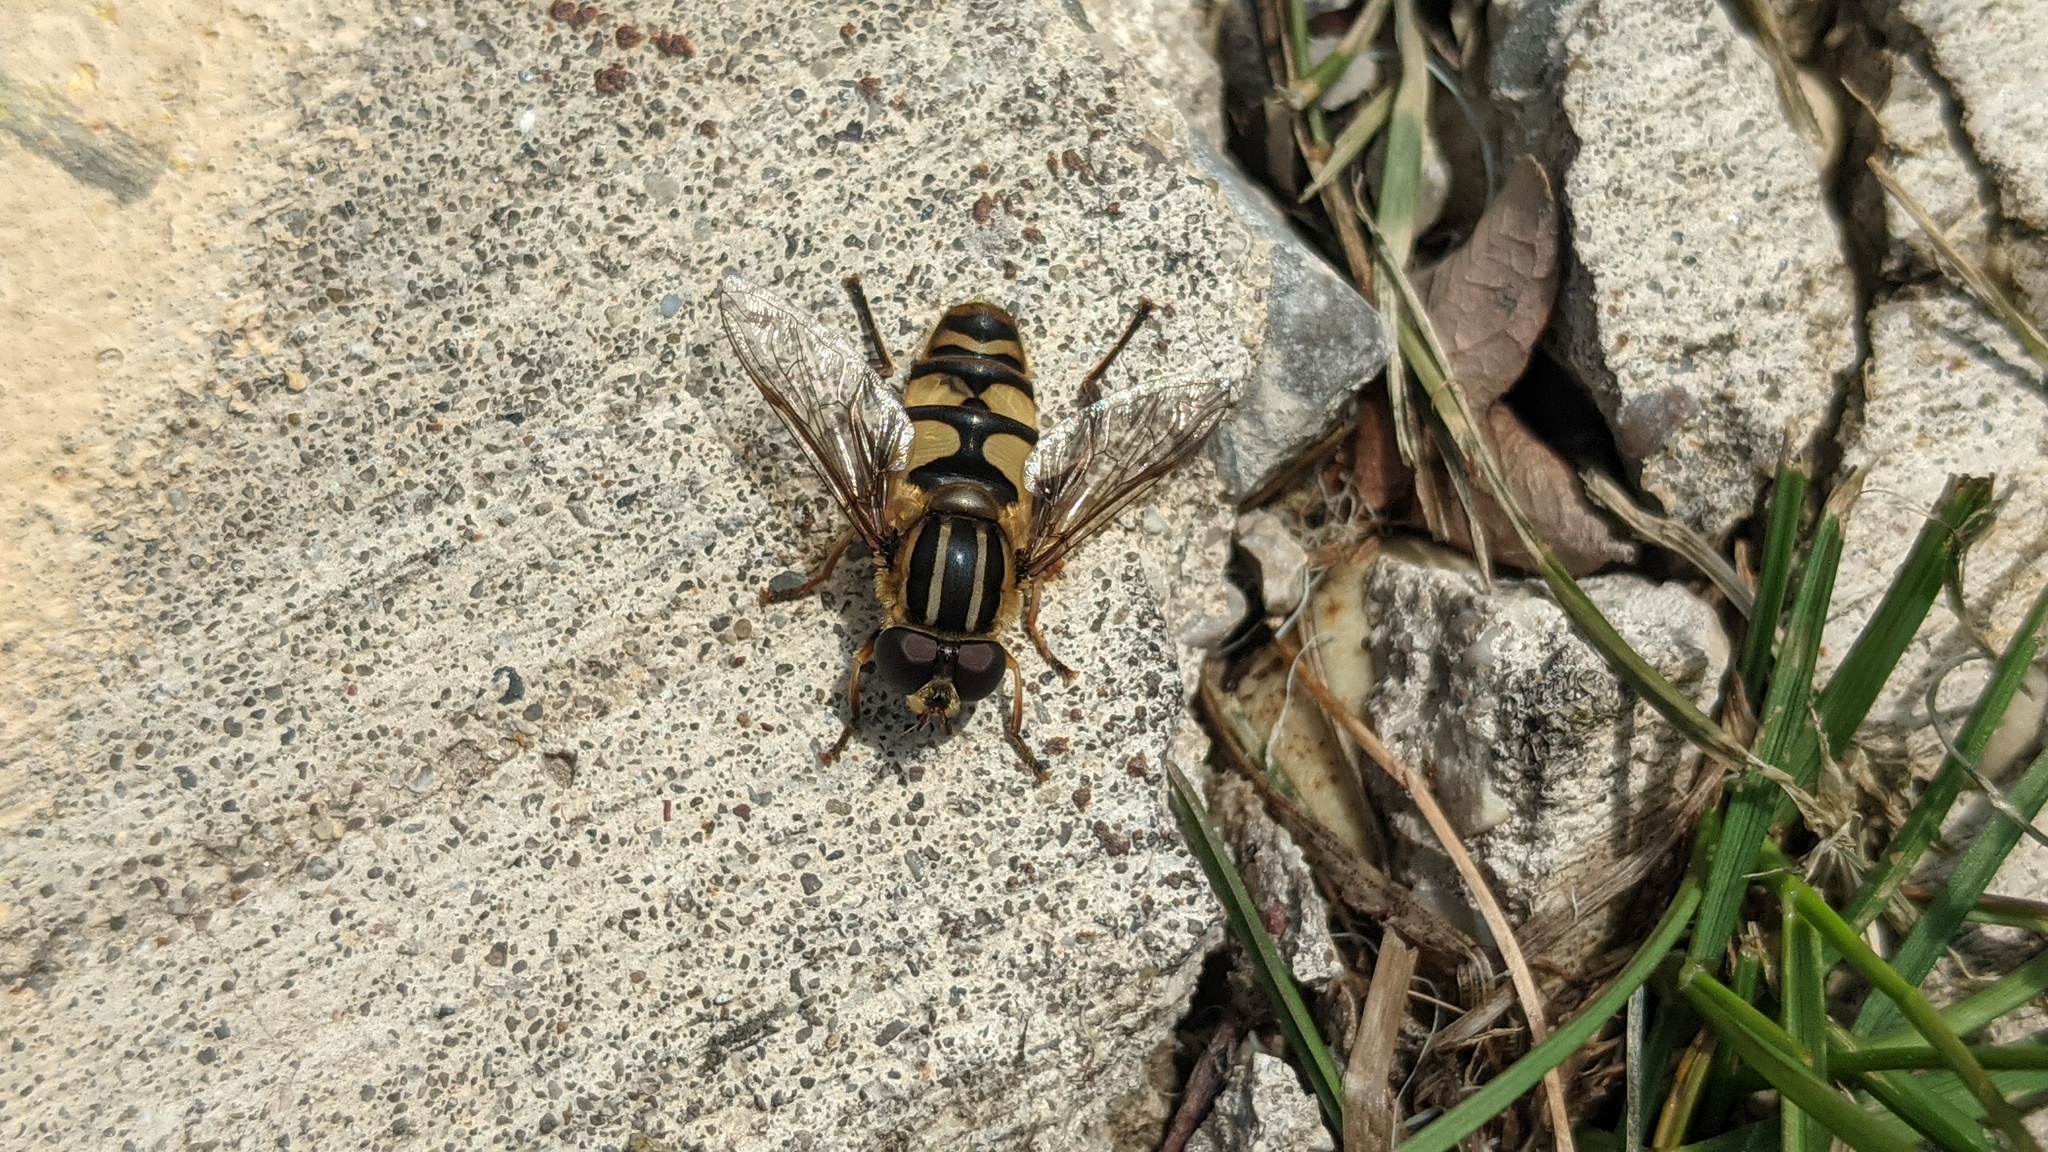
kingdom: Animalia
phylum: Arthropoda
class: Insecta
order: Diptera
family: Syrphidae
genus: Helophilus
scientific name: Helophilus fasciatus
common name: Narrow-headed marsh fly
